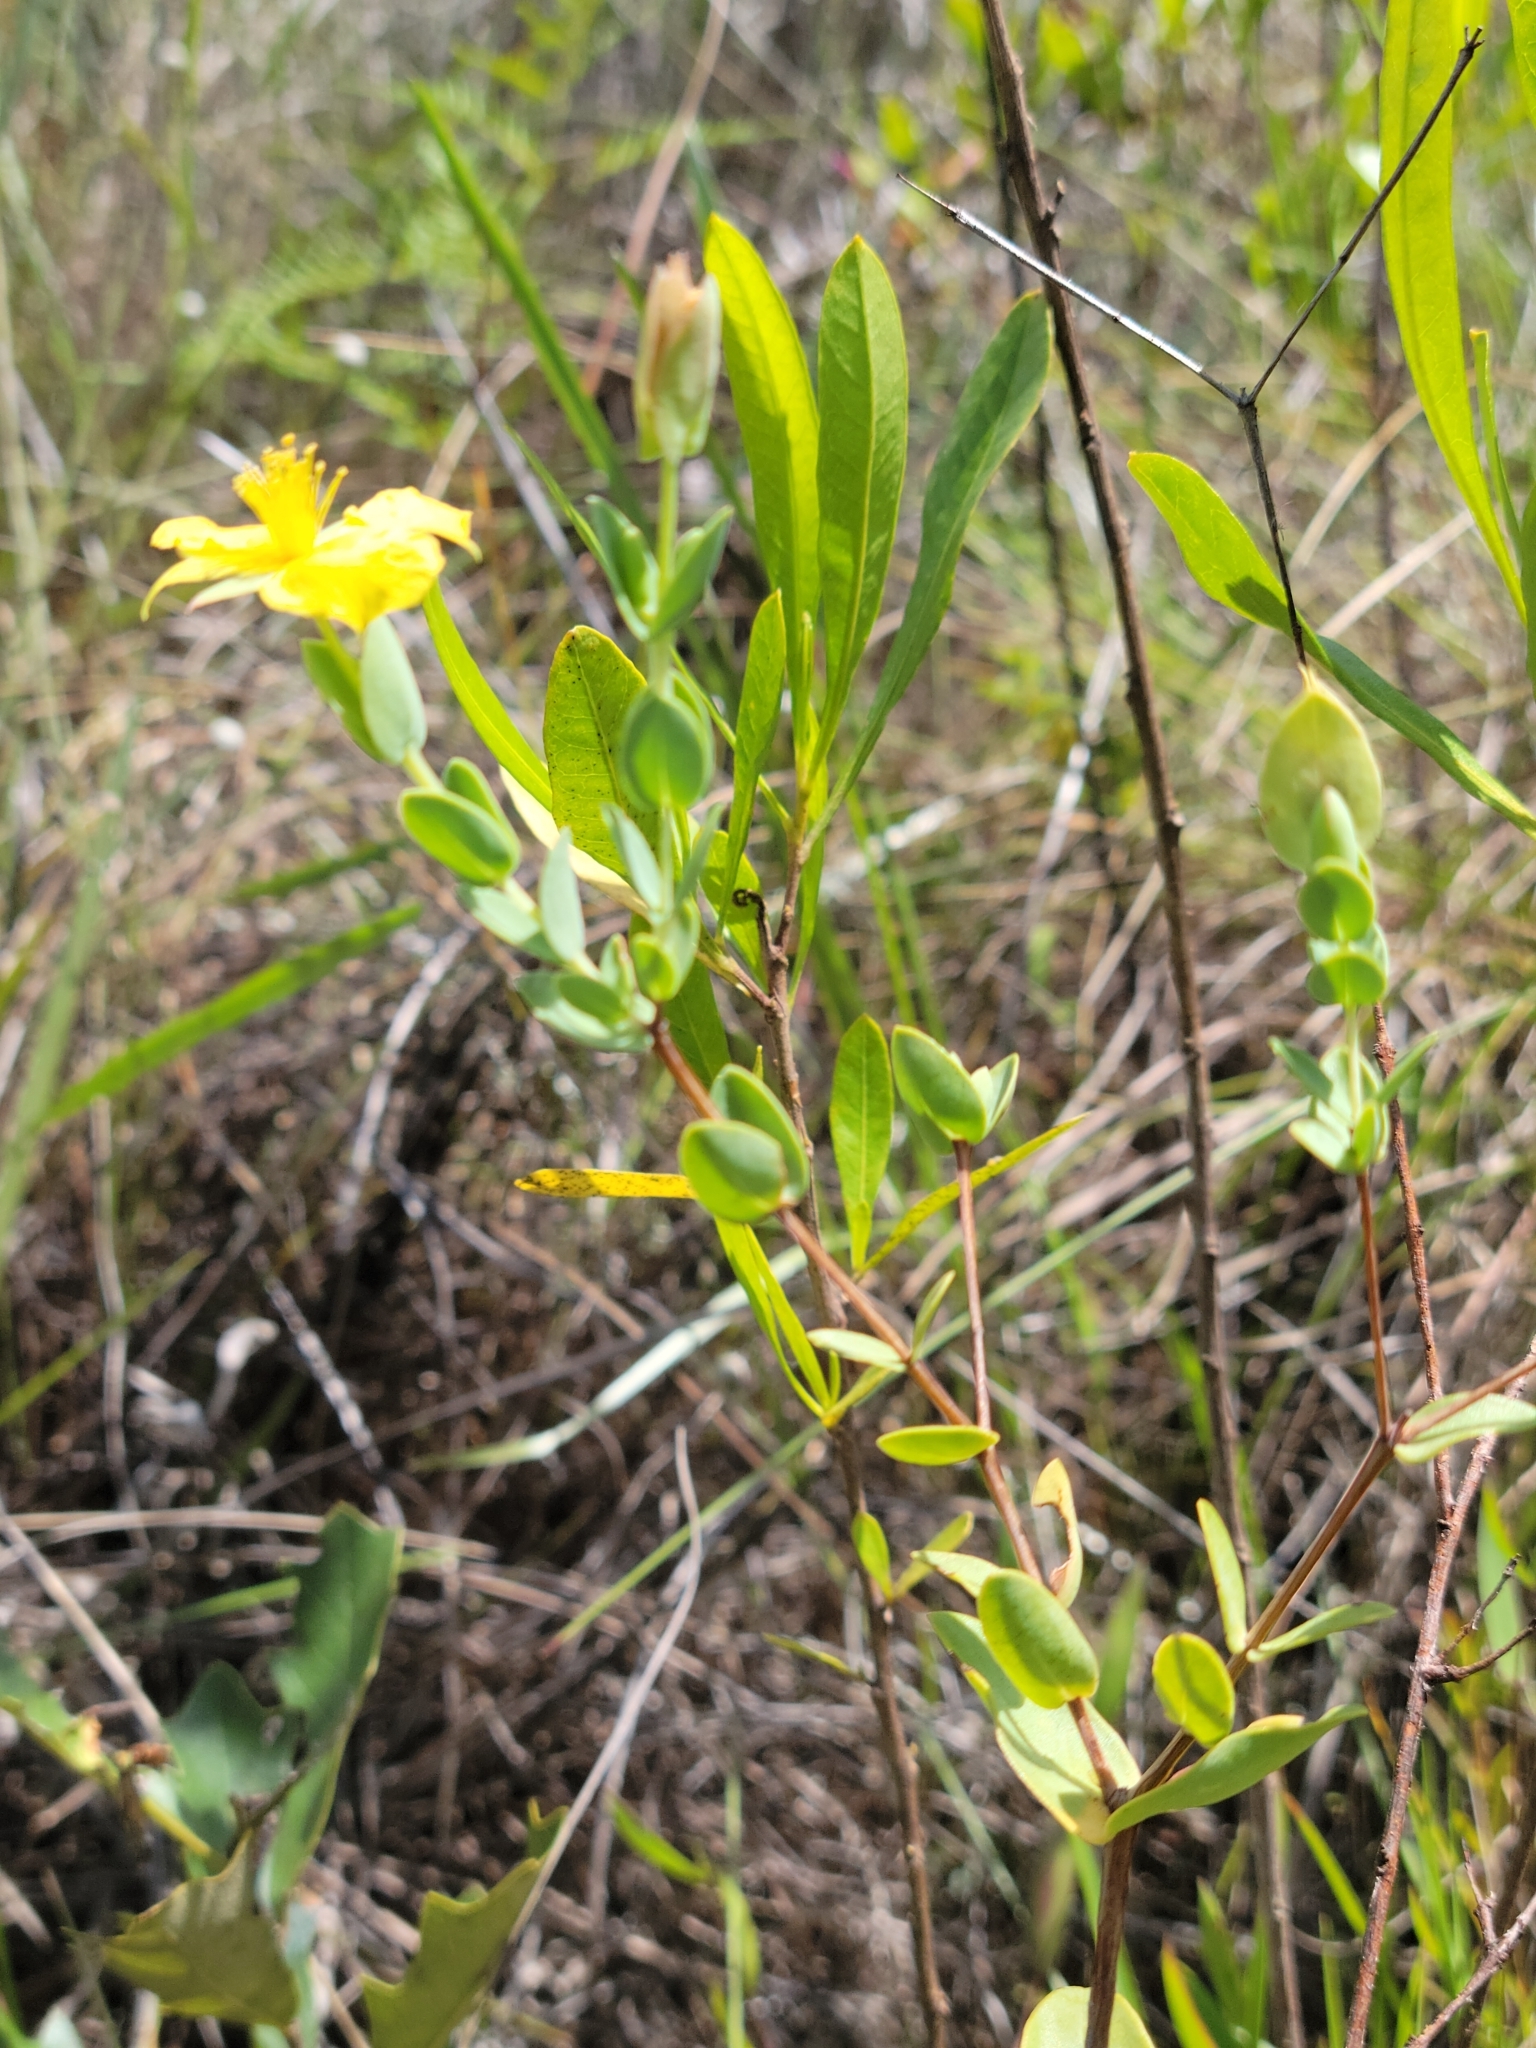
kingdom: Plantae
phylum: Tracheophyta
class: Magnoliopsida
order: Malpighiales
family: Hypericaceae
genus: Hypericum
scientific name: Hypericum tetrapetalum
